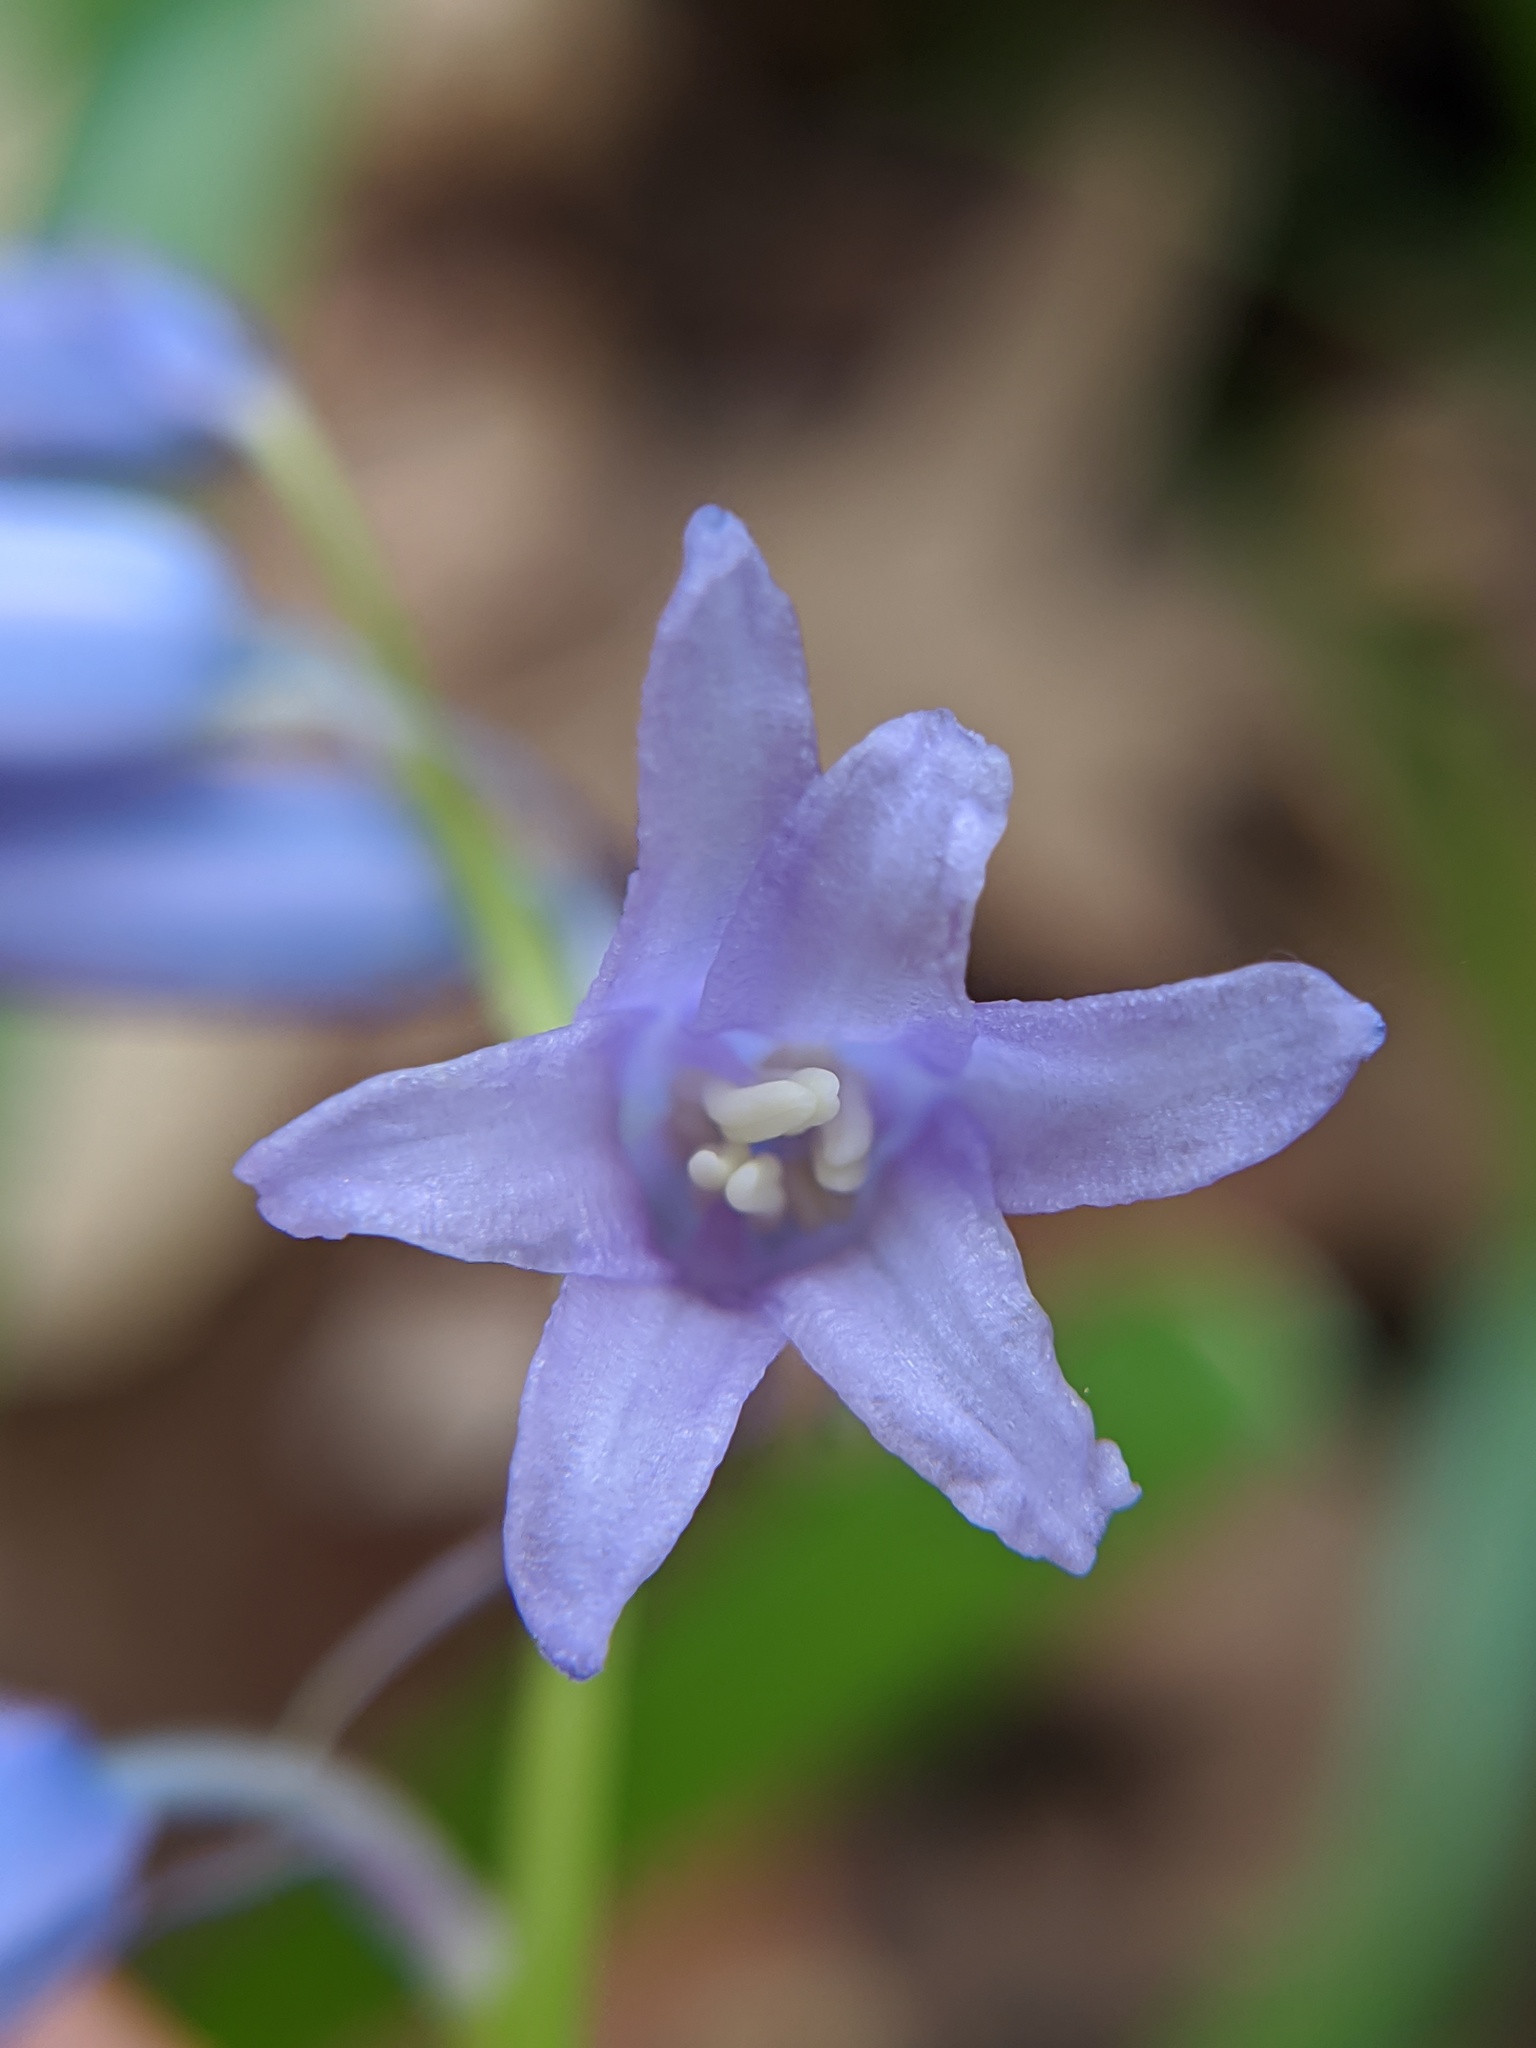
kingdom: Plantae
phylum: Tracheophyta
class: Liliopsida
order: Asparagales
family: Asparagaceae
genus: Hyacinthoides
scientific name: Hyacinthoides non-scripta
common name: Bluebell
